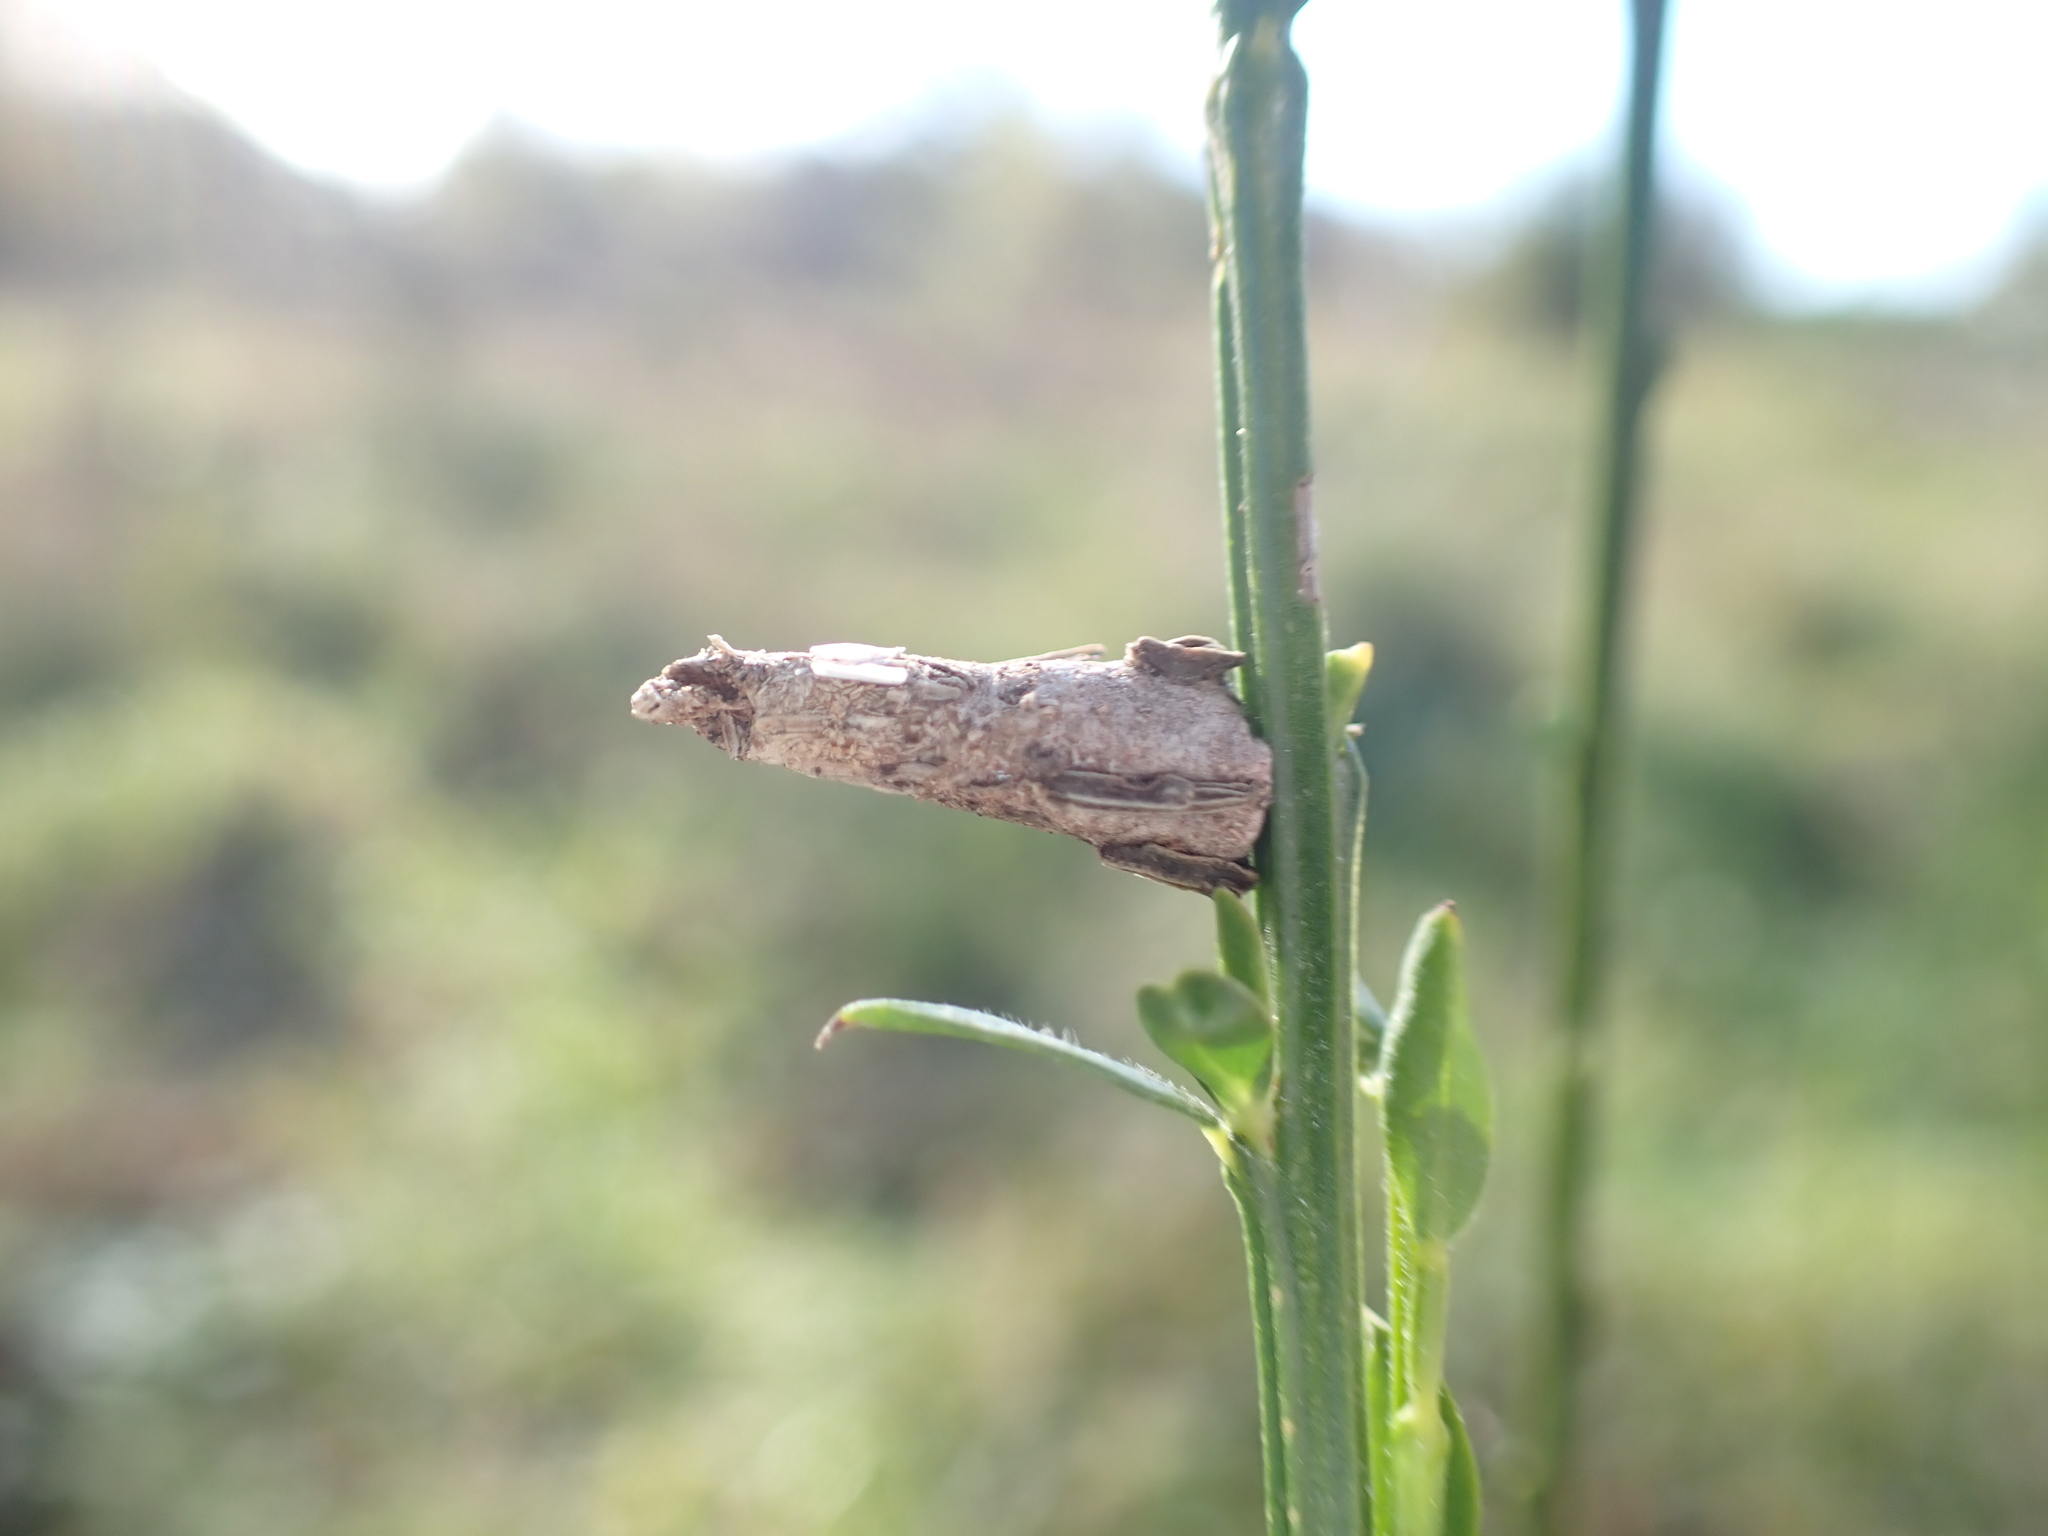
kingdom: Animalia
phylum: Arthropoda
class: Insecta
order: Lepidoptera
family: Psychidae
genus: Liothula
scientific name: Liothula omnivora
